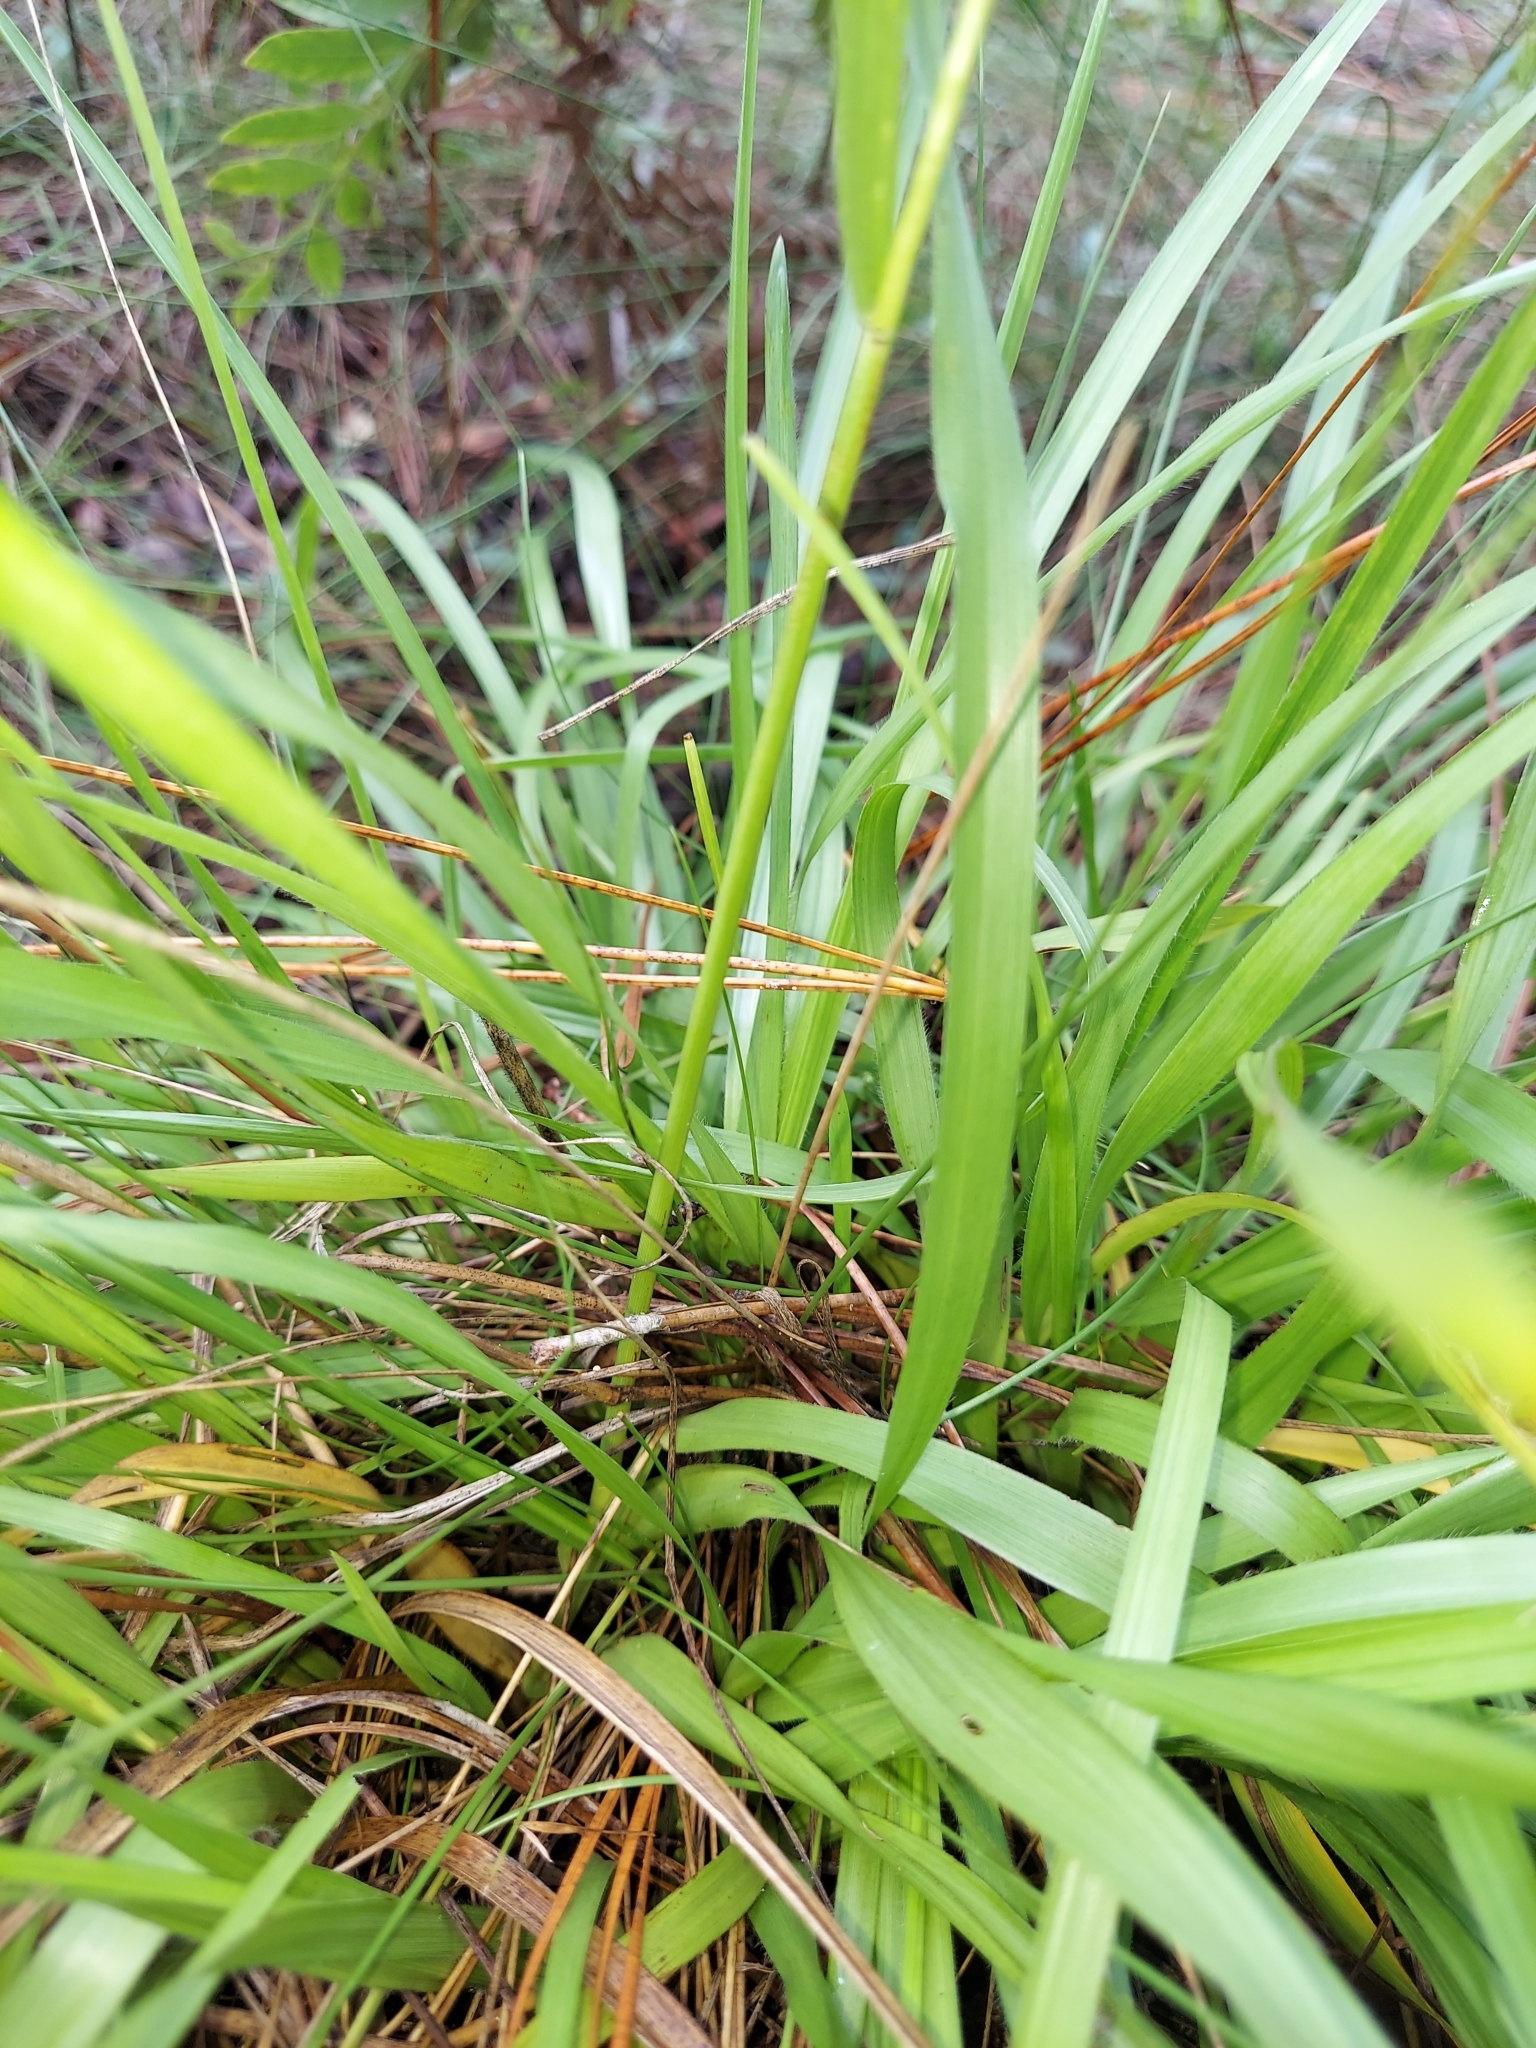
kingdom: Plantae
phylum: Tracheophyta
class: Liliopsida
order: Poales
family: Poaceae
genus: Anthenantia
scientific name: Anthenantia villosa
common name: Green silkyscale
